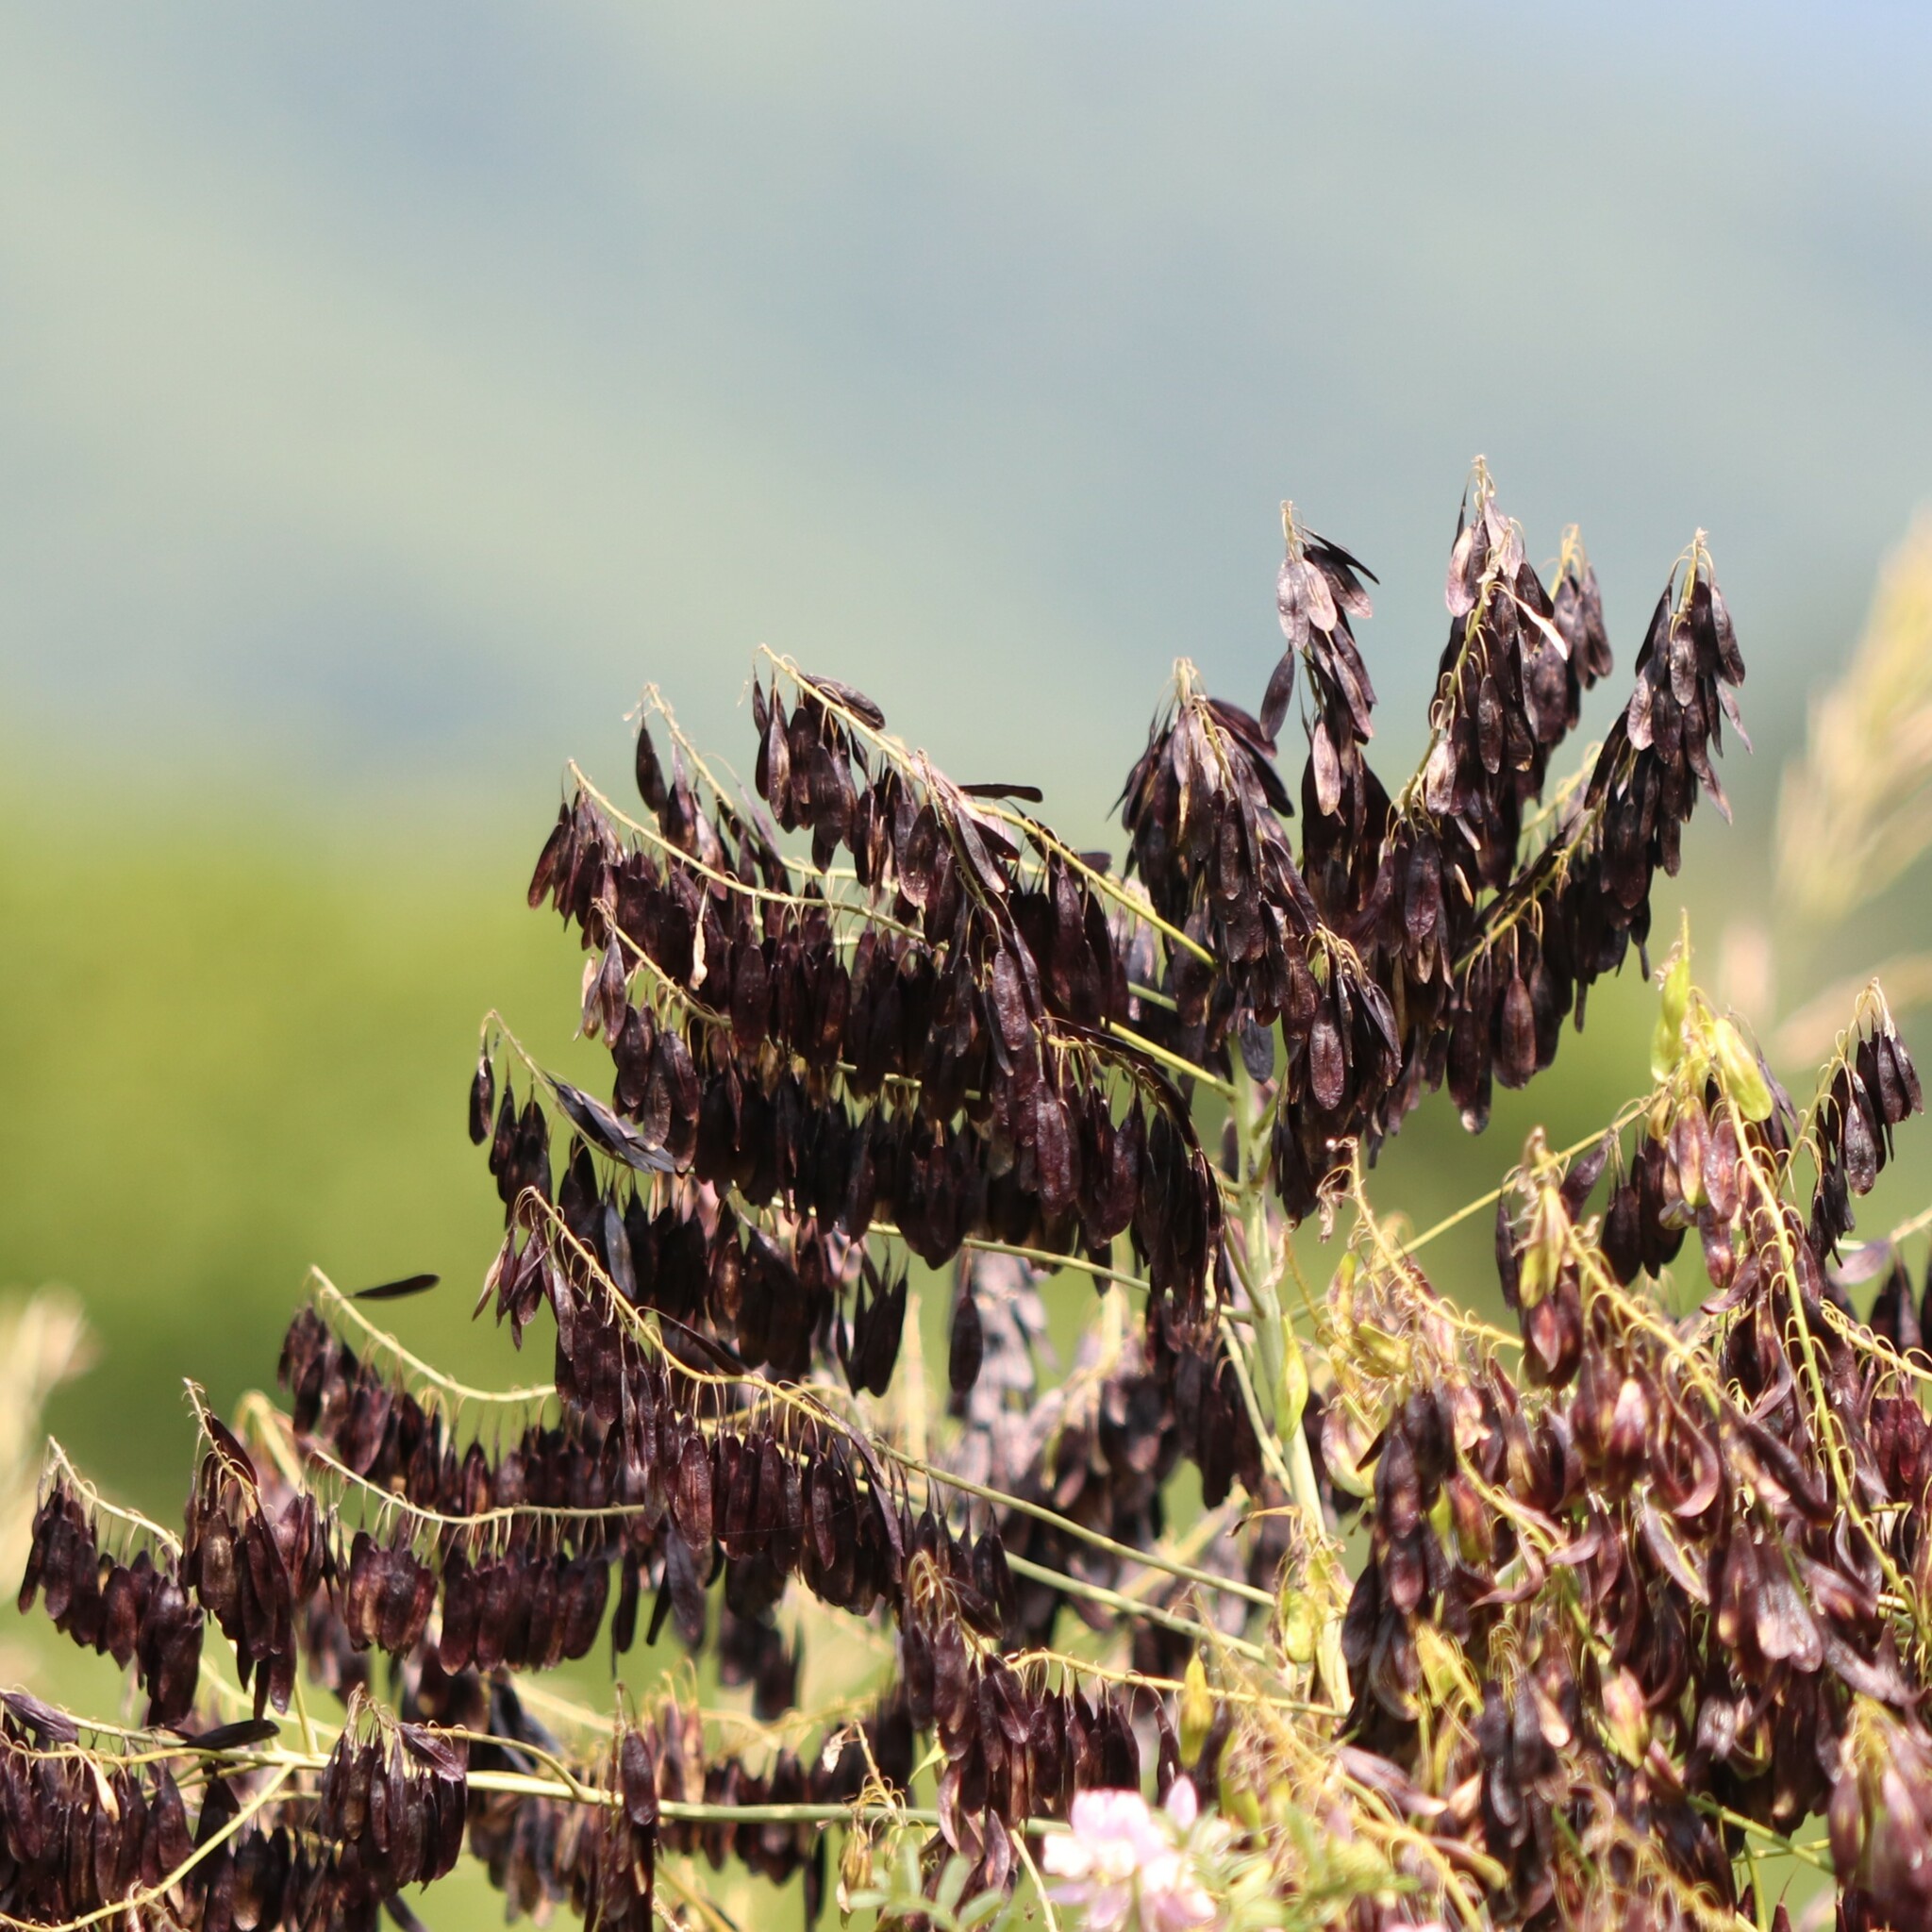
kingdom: Plantae
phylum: Tracheophyta
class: Magnoliopsida
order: Brassicales
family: Brassicaceae
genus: Isatis
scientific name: Isatis tinctoria
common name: Woad
